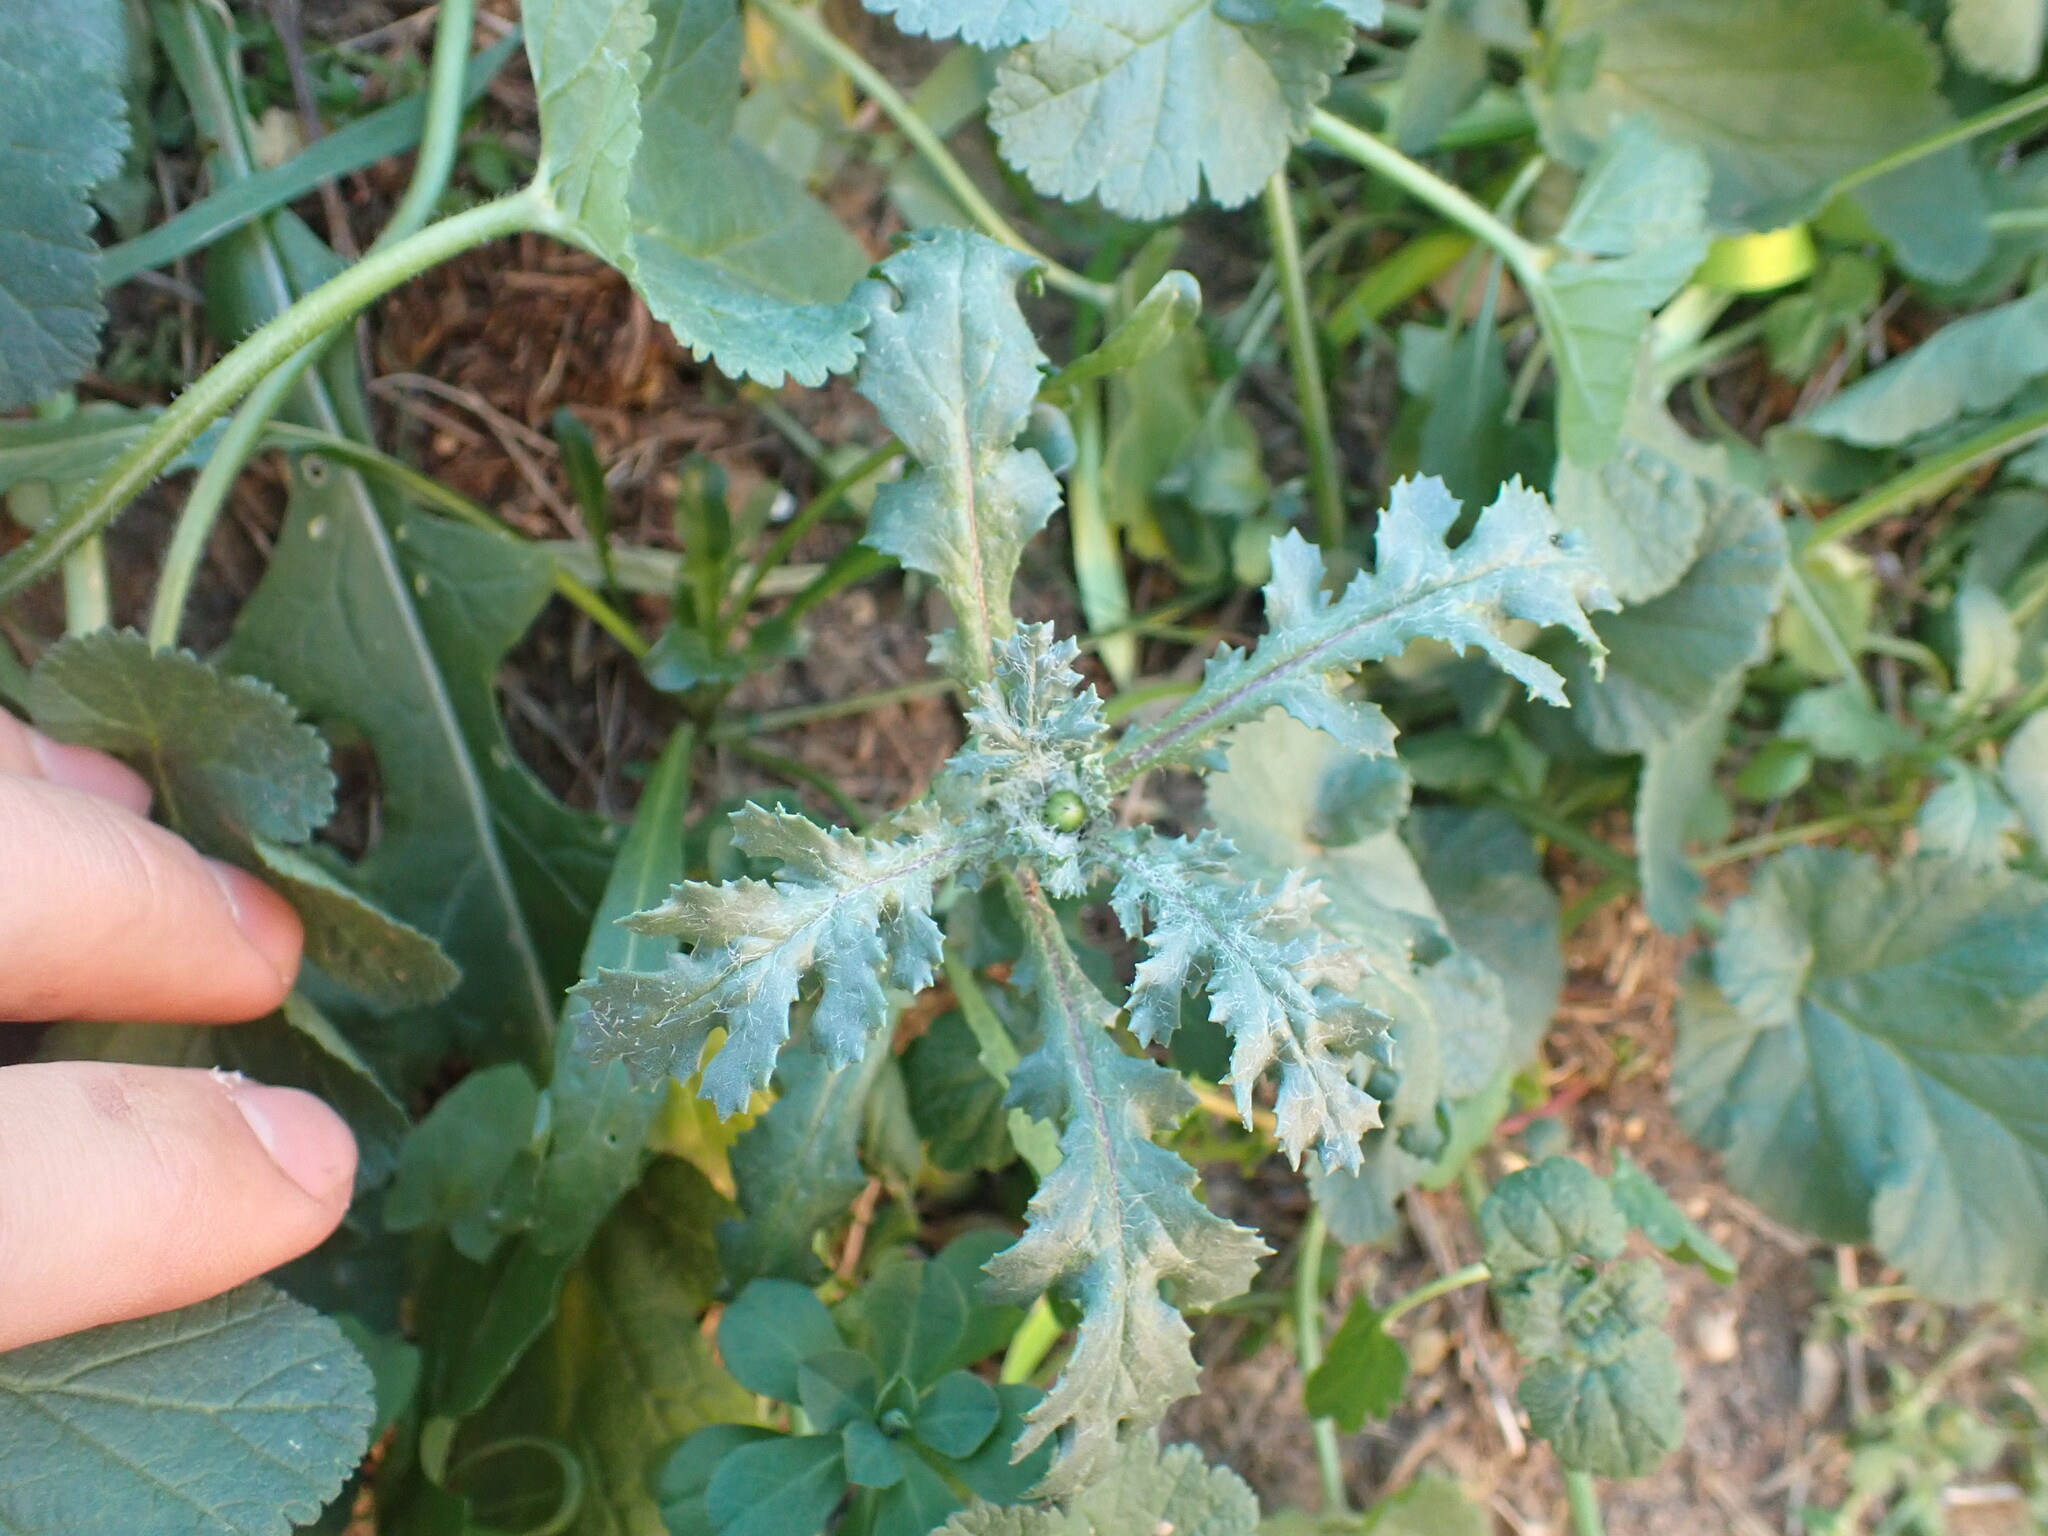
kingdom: Plantae
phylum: Tracheophyta
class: Magnoliopsida
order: Asterales
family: Asteraceae
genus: Senecio
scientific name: Senecio vulgaris
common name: Old-man-in-the-spring
